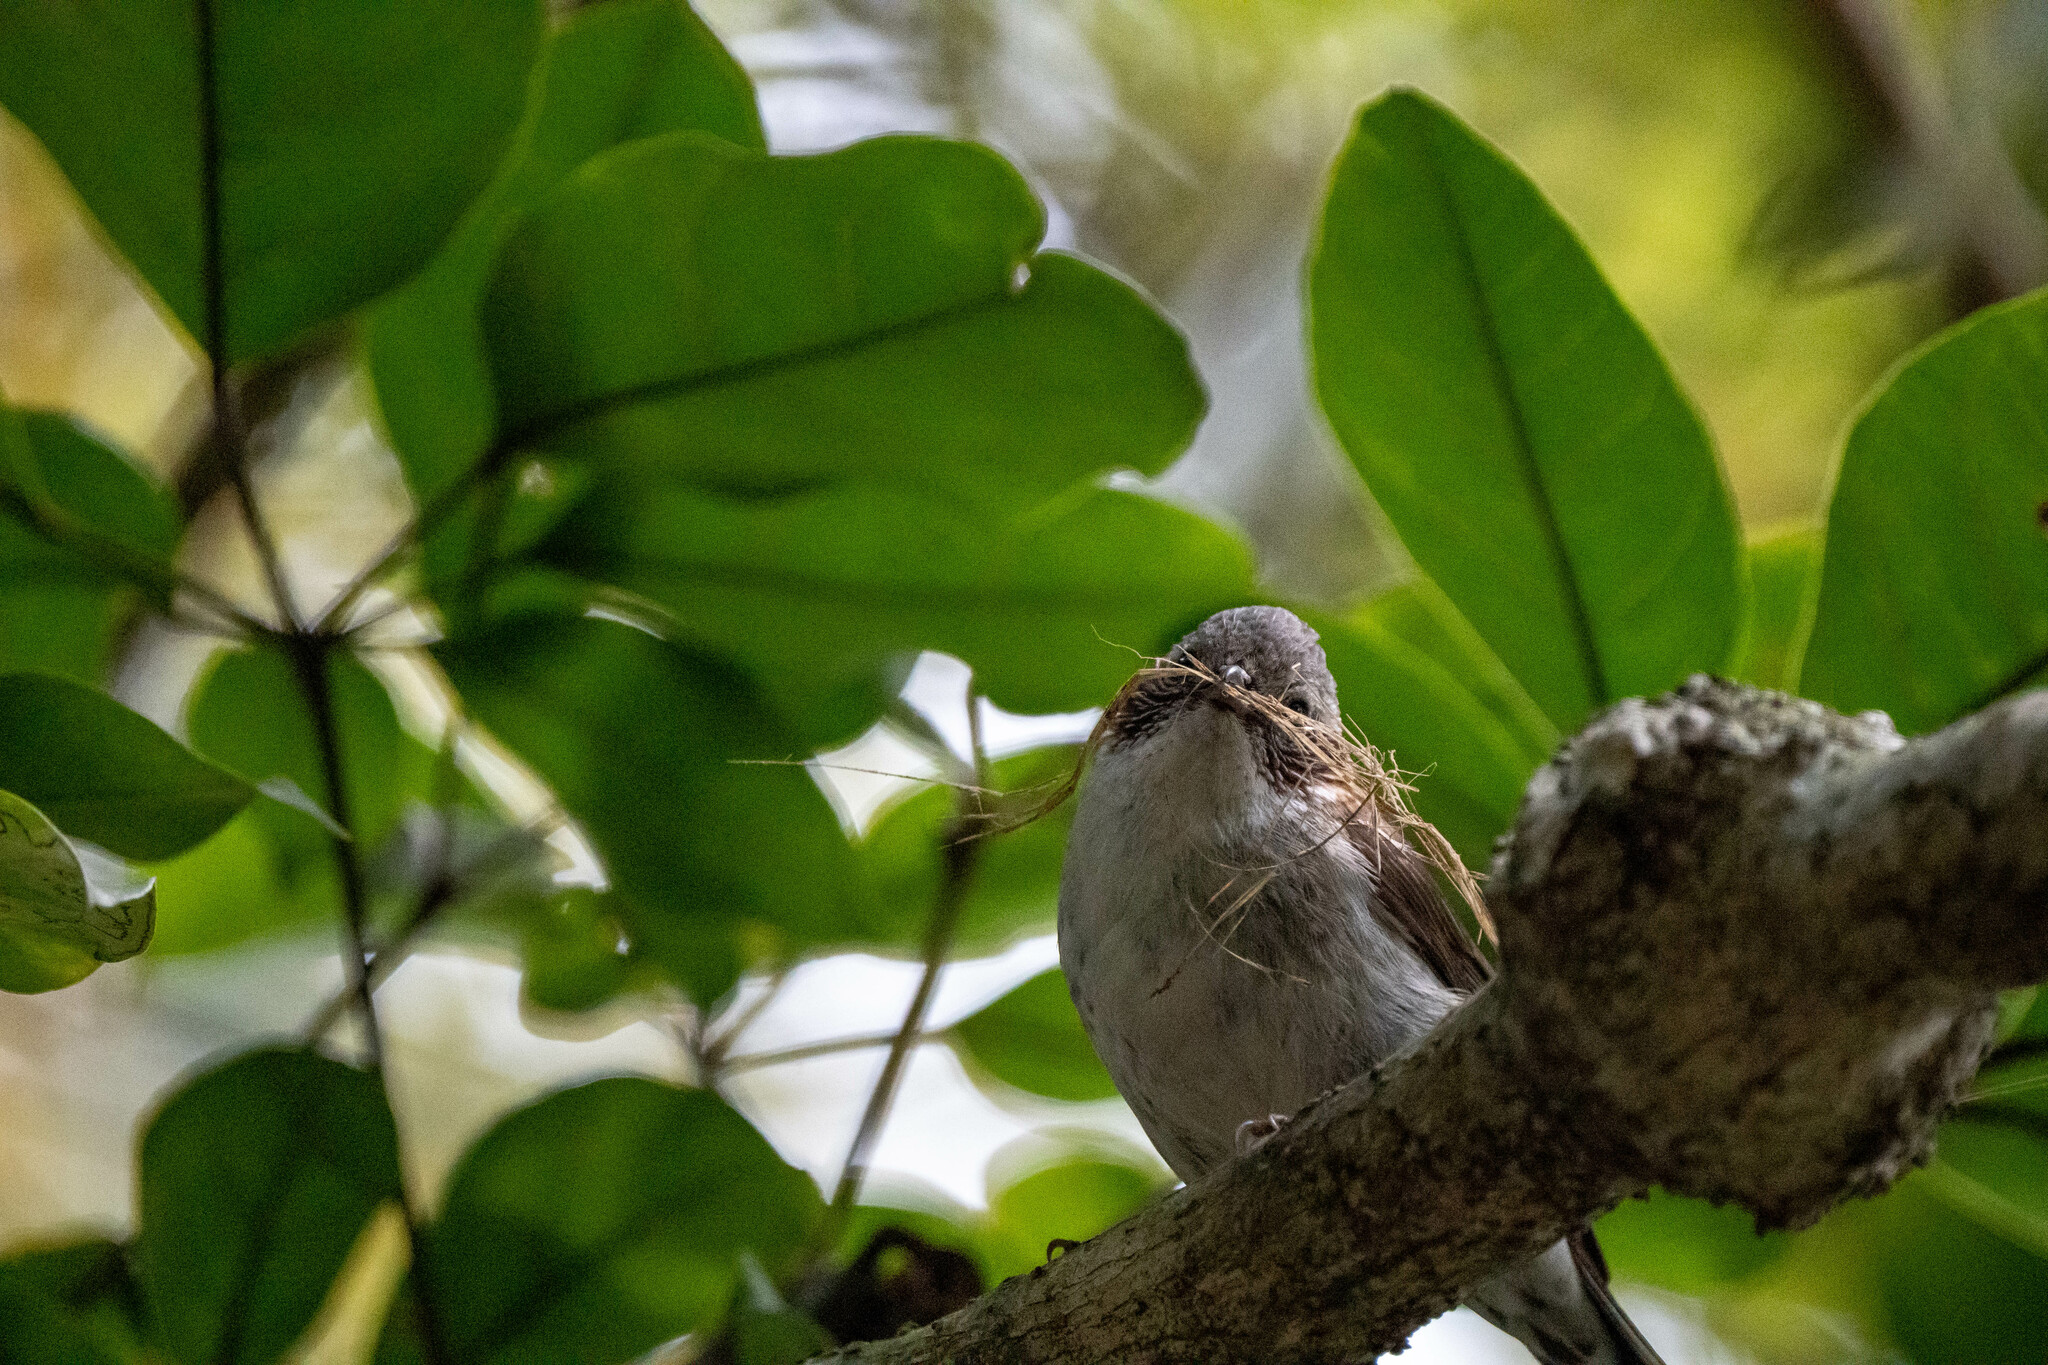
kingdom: Animalia
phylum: Chordata
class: Aves
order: Passeriformes
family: Zosteropidae
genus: Yuhina
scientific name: Yuhina torqueola
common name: Indochinese yuhina
